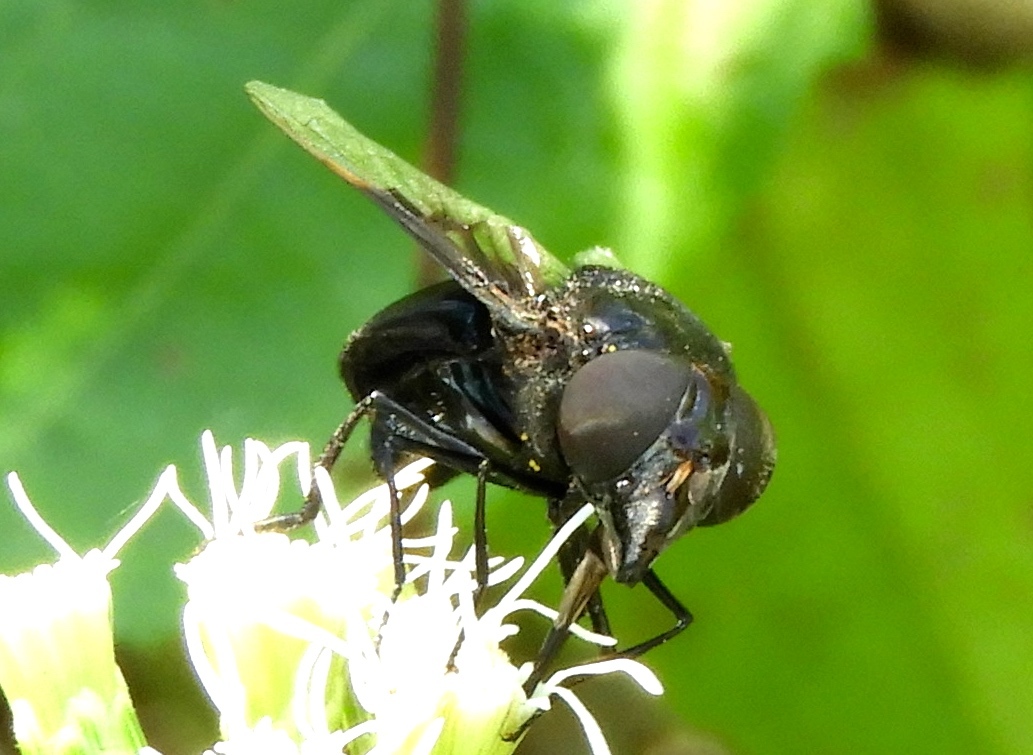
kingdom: Animalia
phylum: Arthropoda
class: Insecta
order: Diptera
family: Syrphidae
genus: Copestylum
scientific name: Copestylum mexicanum
